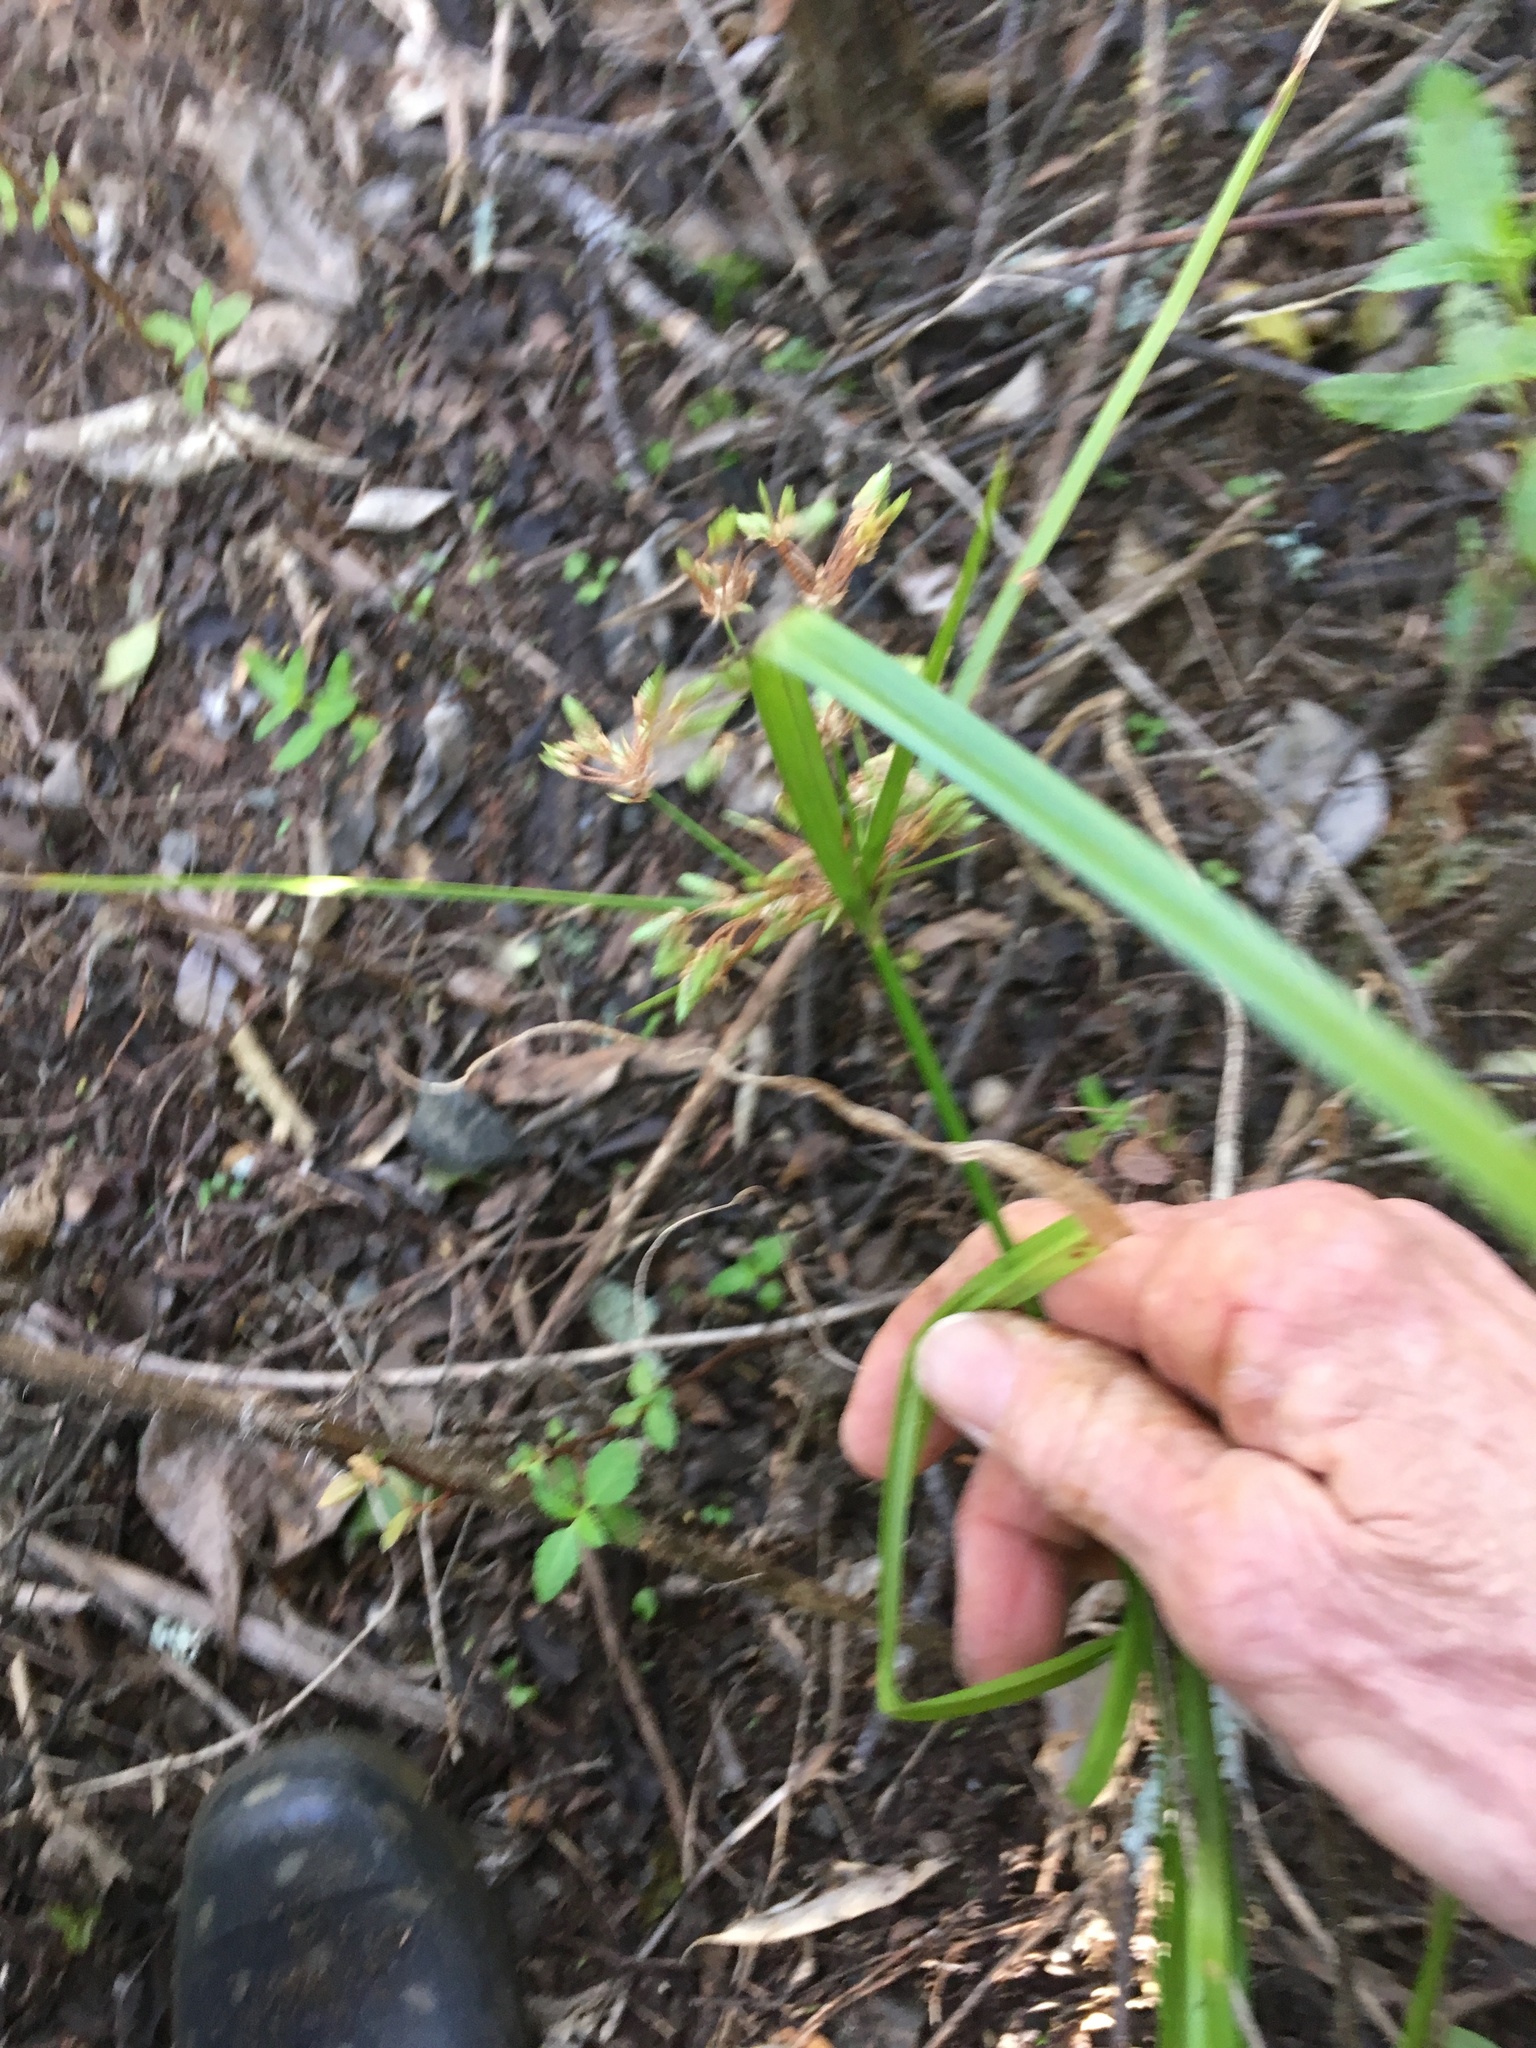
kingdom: Plantae
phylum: Tracheophyta
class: Liliopsida
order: Poales
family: Cyperaceae
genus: Cyperus
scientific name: Cyperus eragrostis
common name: Tall flatsedge
